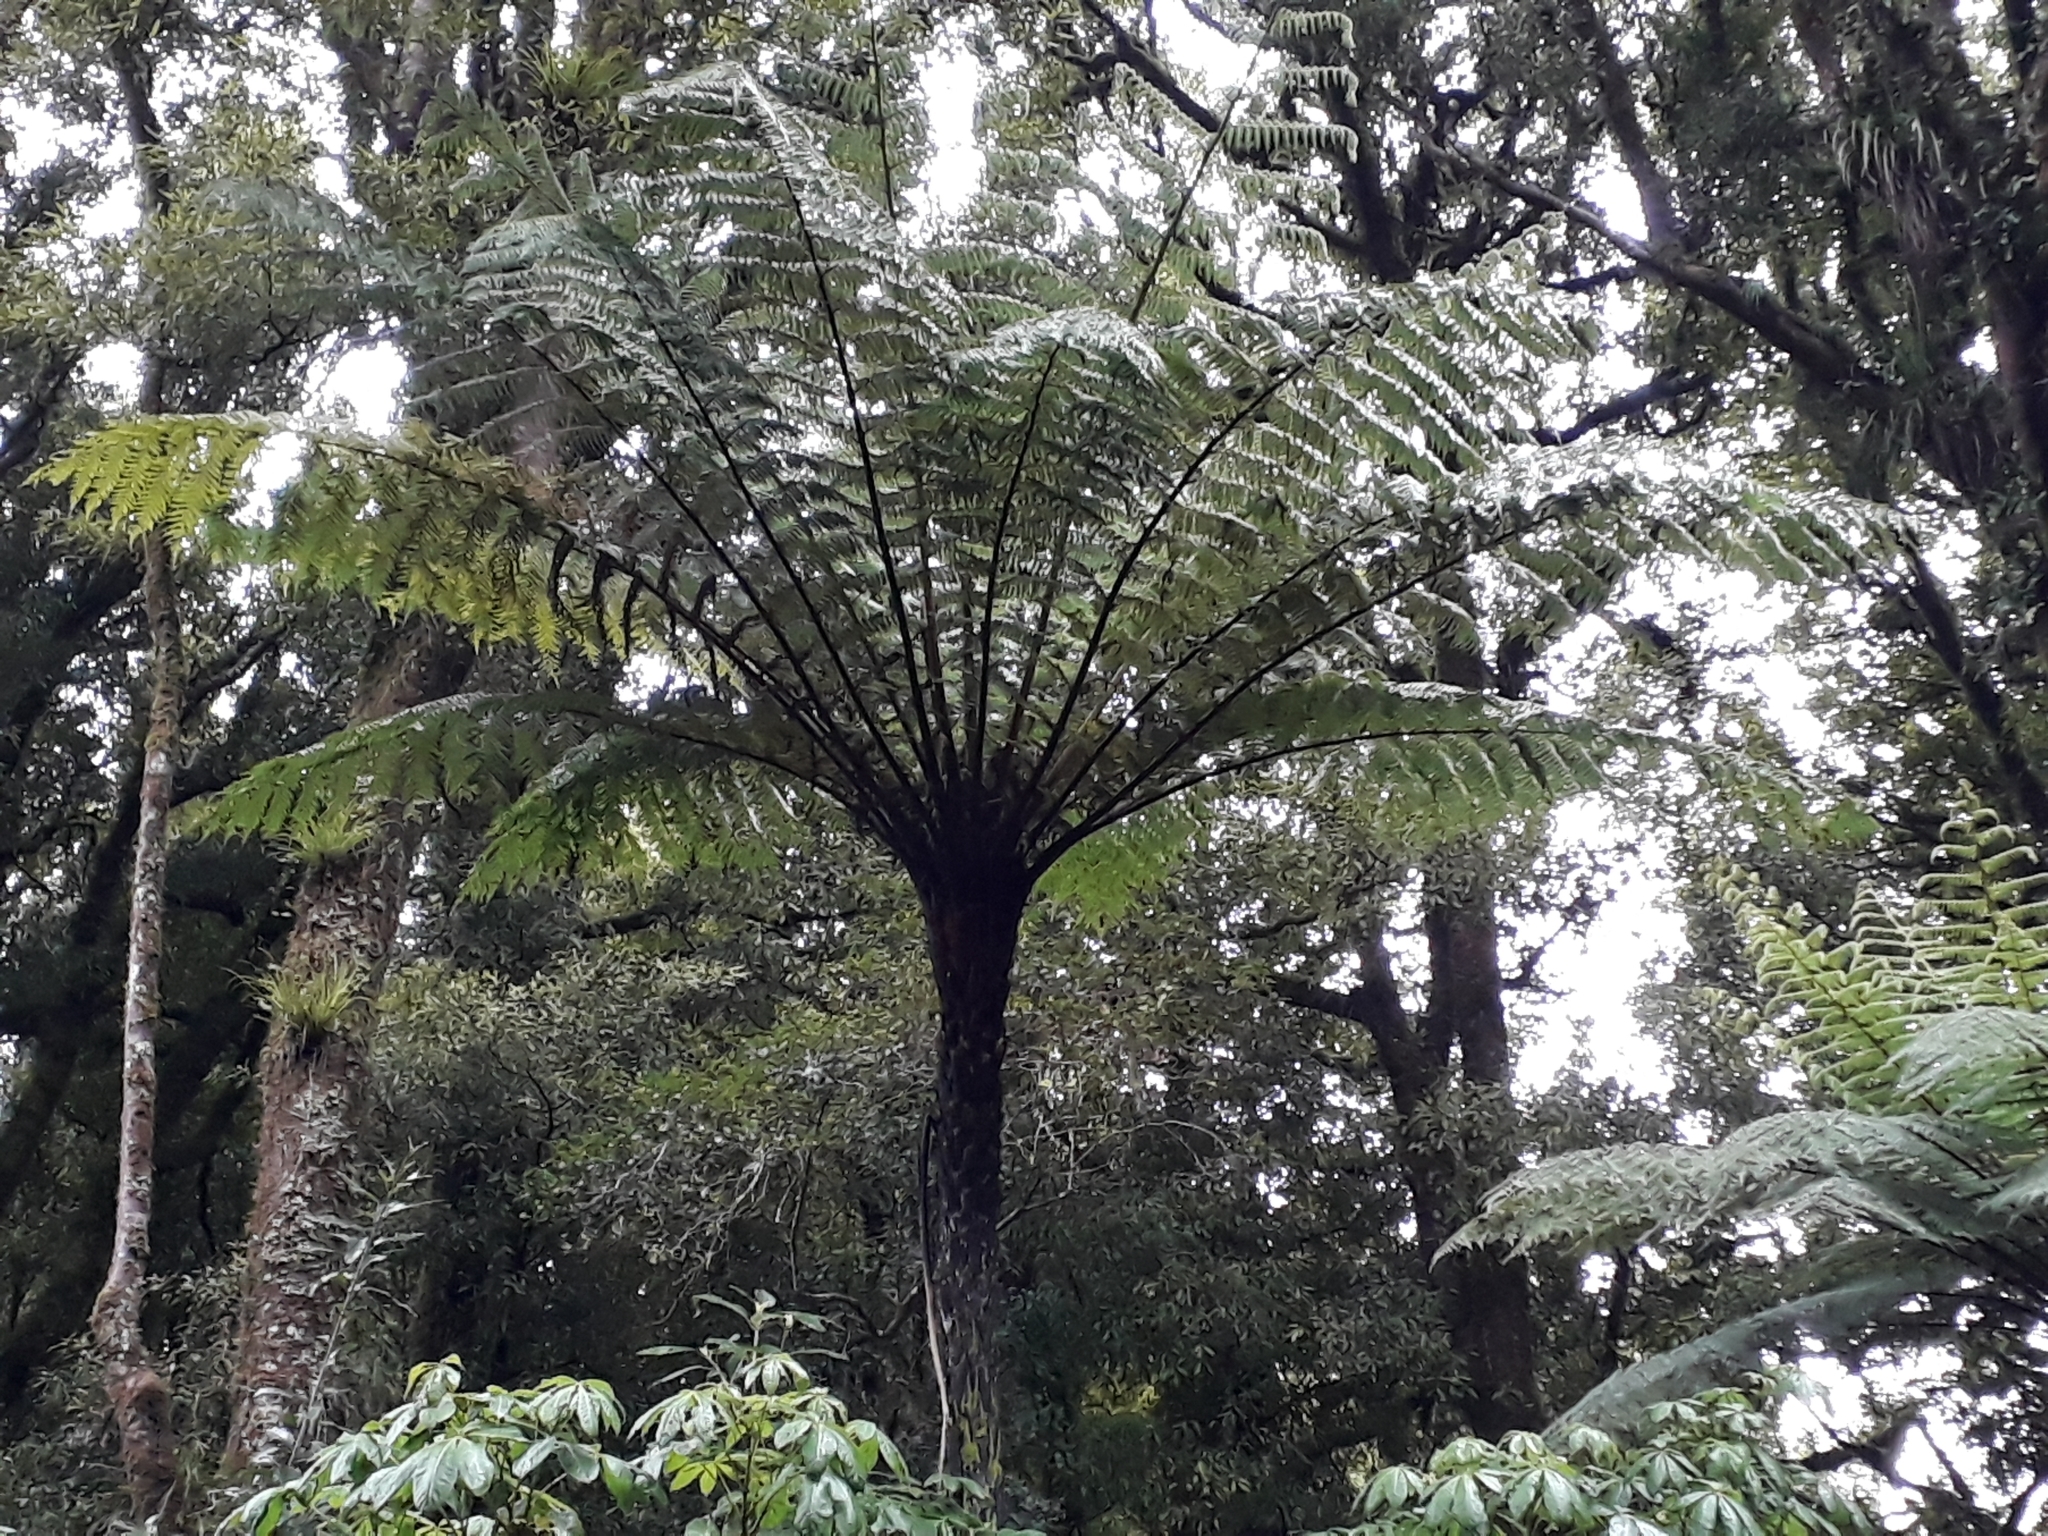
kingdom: Plantae
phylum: Tracheophyta
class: Polypodiopsida
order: Cyatheales
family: Cyatheaceae
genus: Cyathea
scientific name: Cyathea cunninghamii
